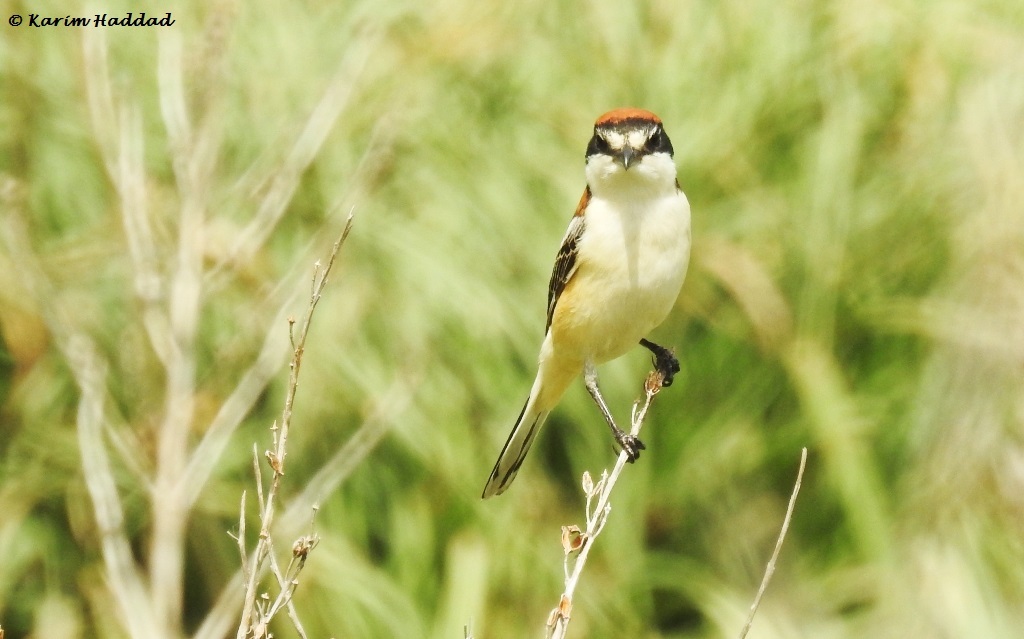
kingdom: Animalia
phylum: Chordata
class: Aves
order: Passeriformes
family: Laniidae
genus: Lanius
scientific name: Lanius senator
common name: Woodchat shrike
